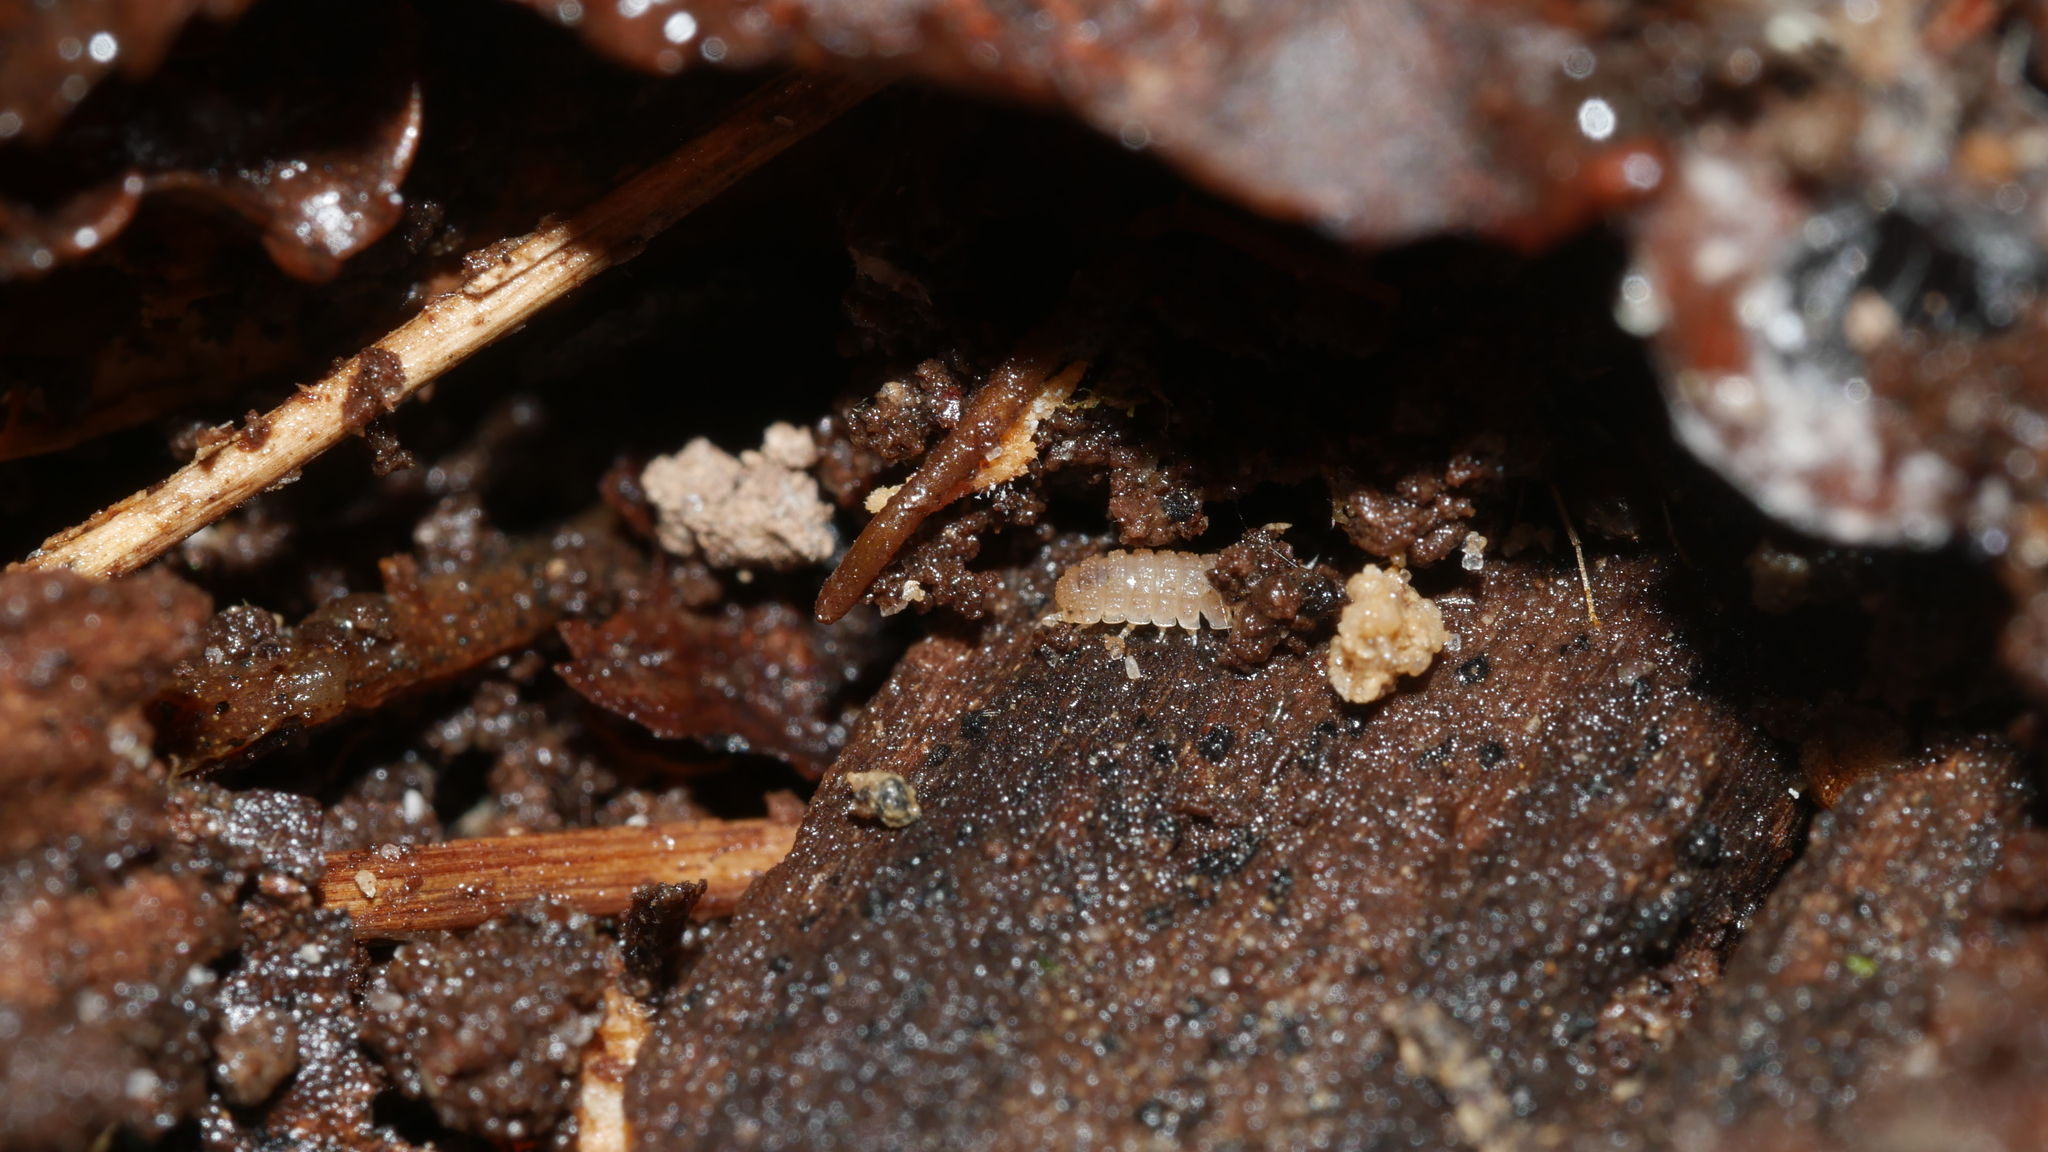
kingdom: Animalia
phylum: Arthropoda
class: Malacostraca
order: Isopoda
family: Trichoniscidae
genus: Haplophthalmus
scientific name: Haplophthalmus danicus
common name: Pillbug
